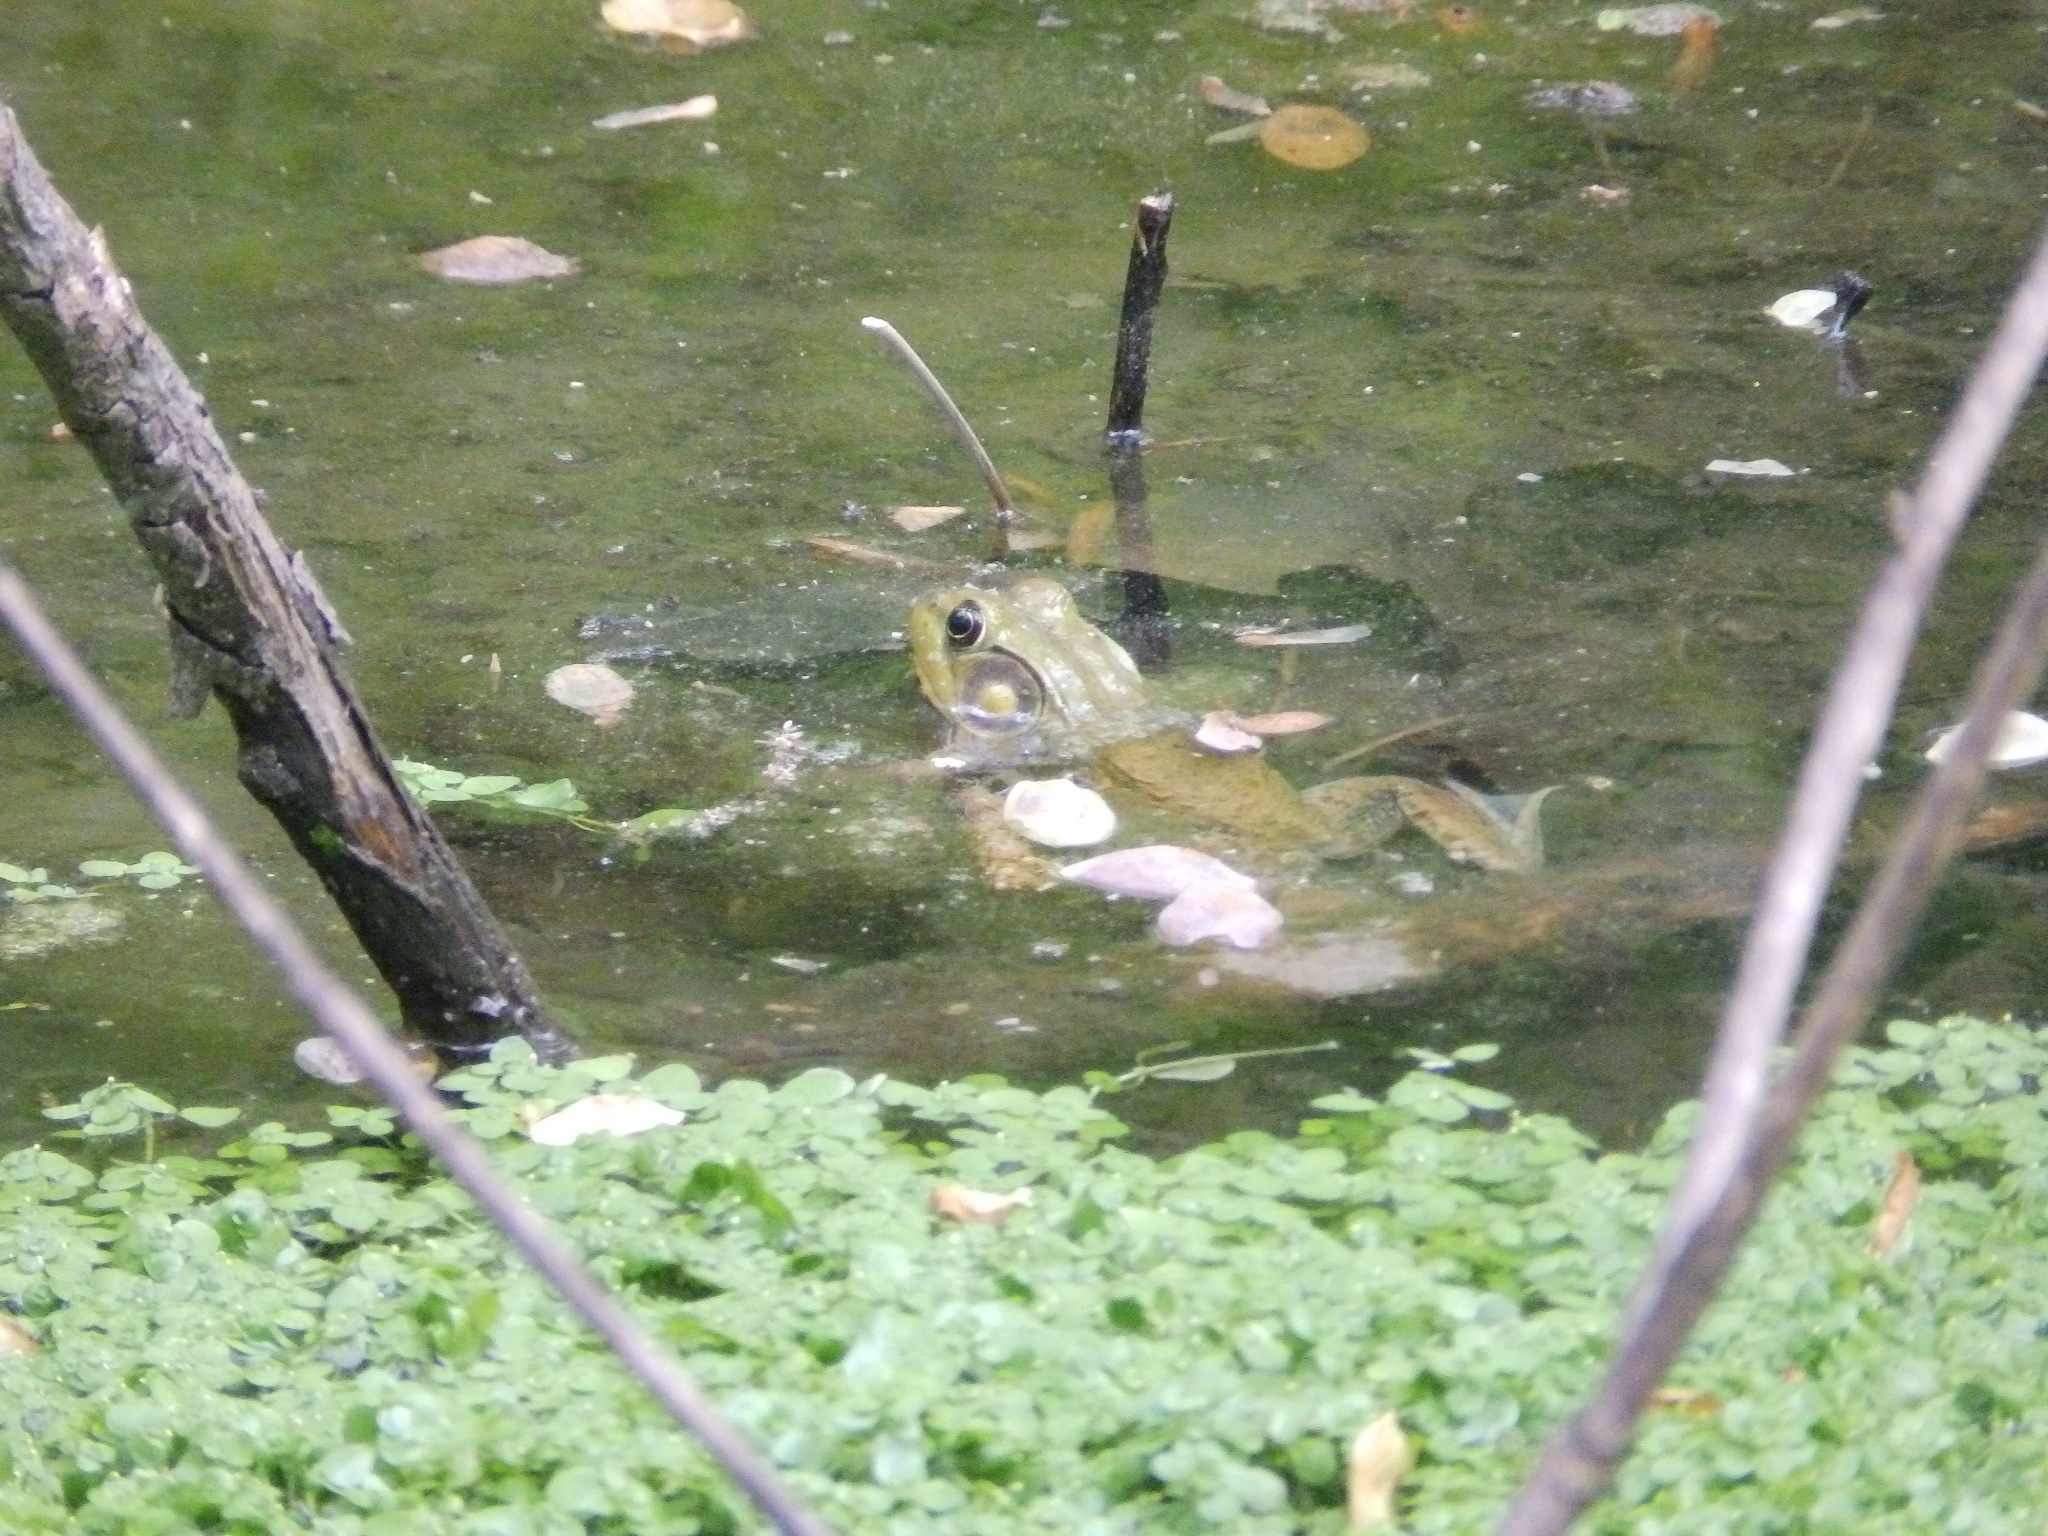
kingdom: Animalia
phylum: Chordata
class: Amphibia
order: Anura
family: Ranidae
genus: Lithobates
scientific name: Lithobates clamitans
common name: Green frog
